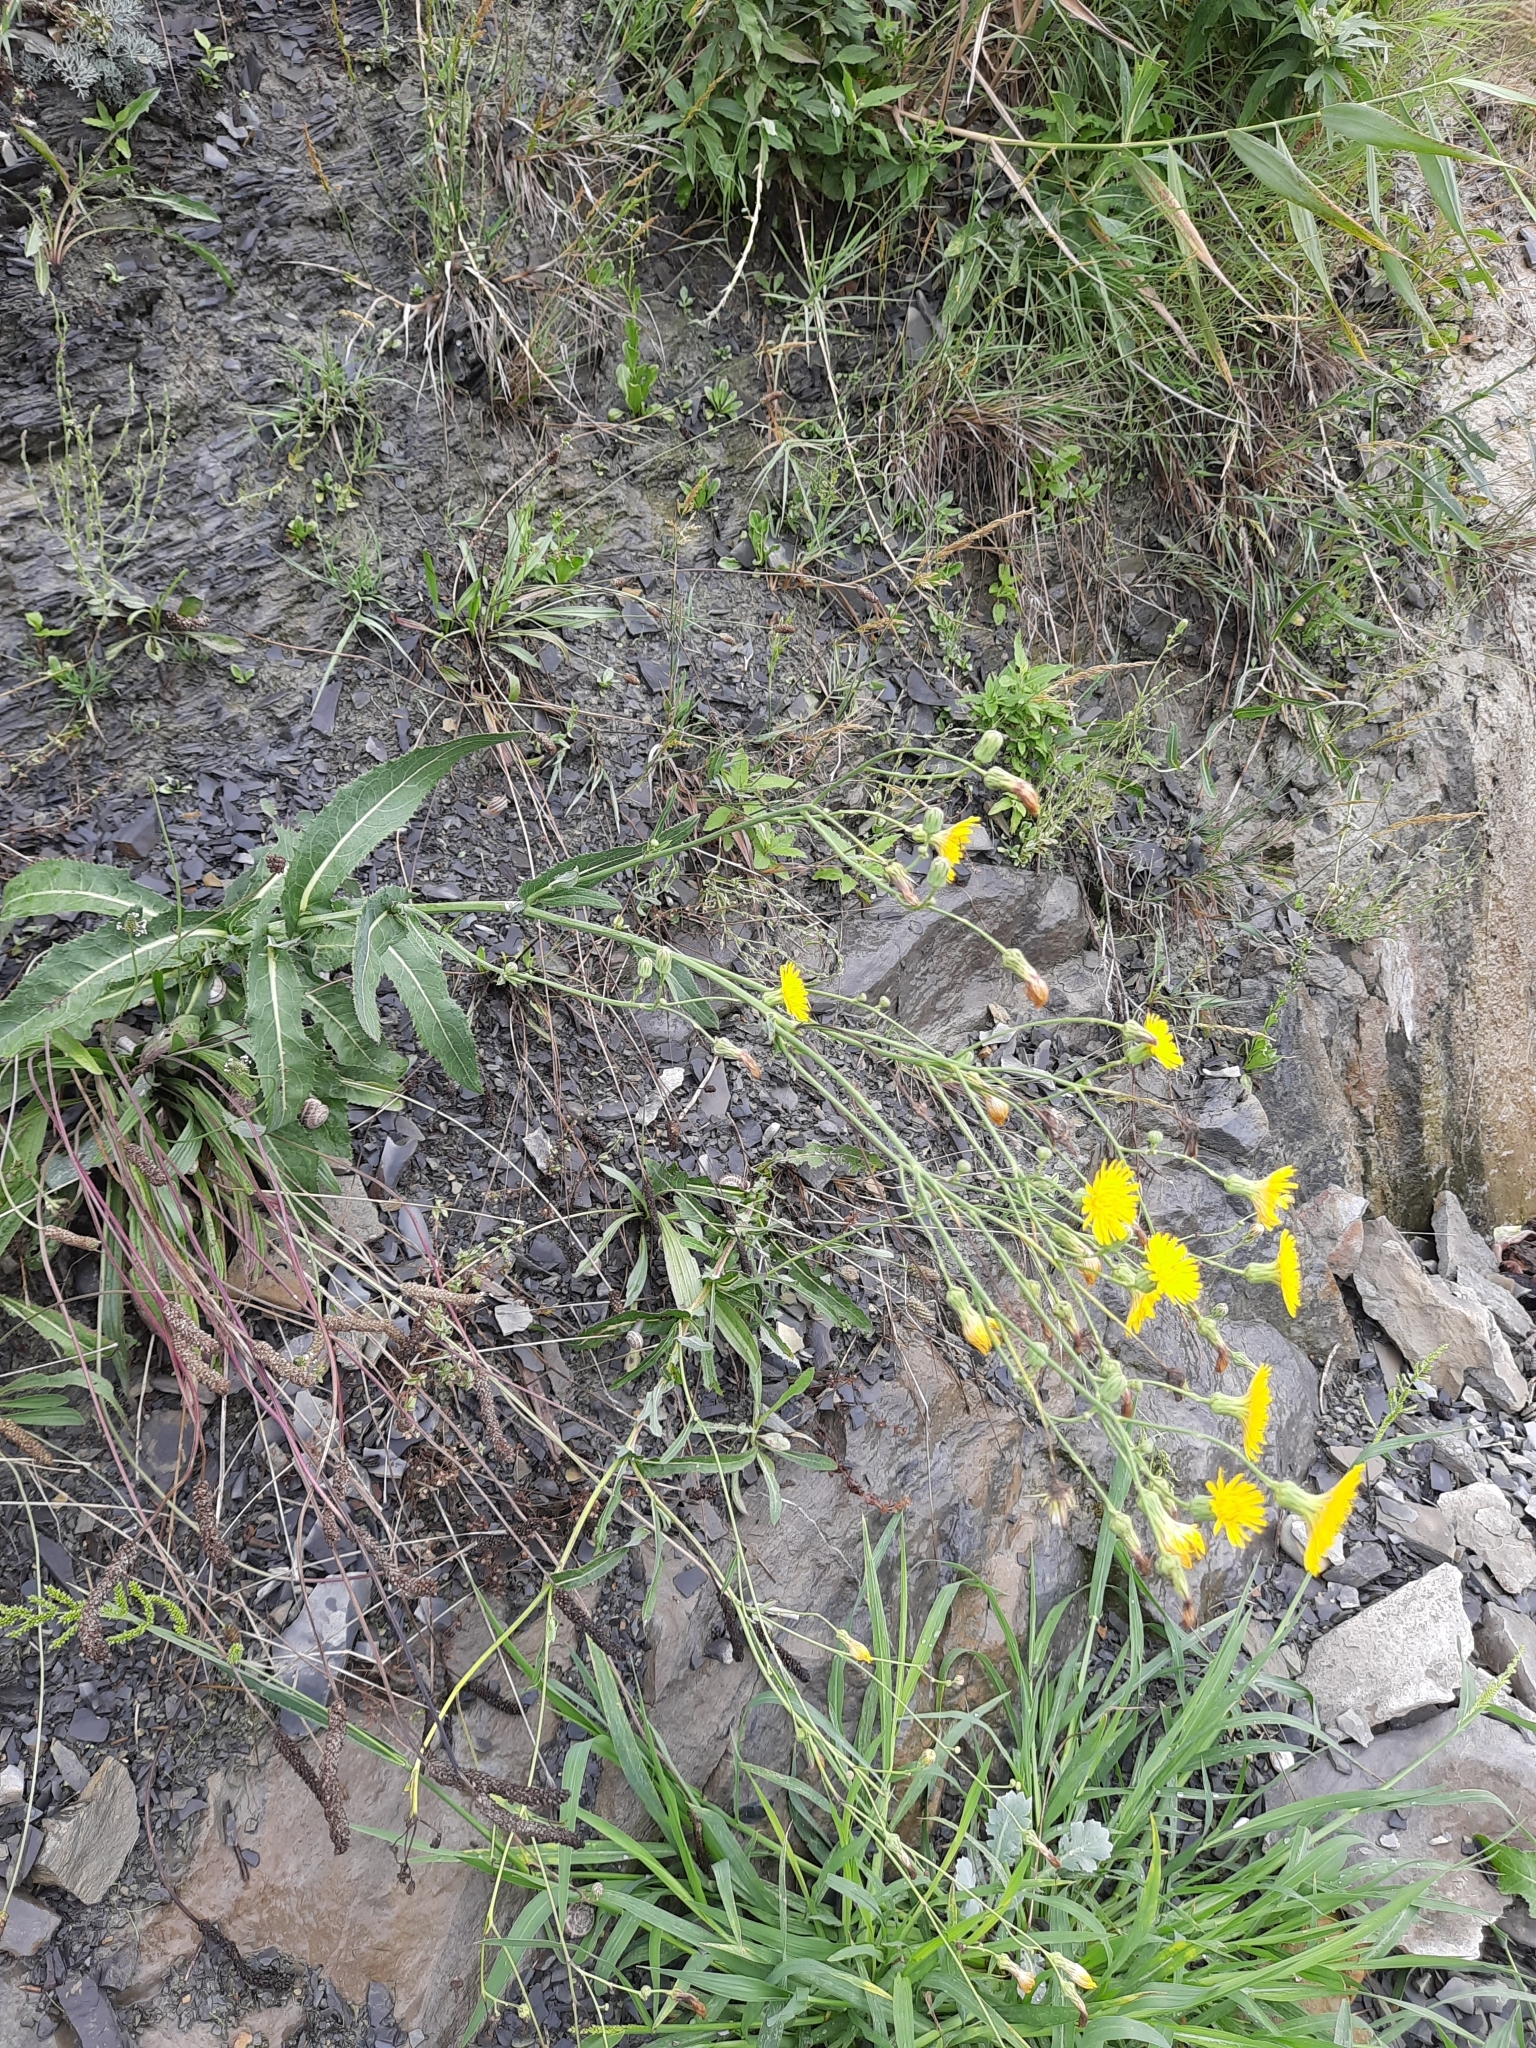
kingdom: Plantae
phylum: Tracheophyta
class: Magnoliopsida
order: Asterales
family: Asteraceae
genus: Sonchus
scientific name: Sonchus arvensis
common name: Perennial sow-thistle
